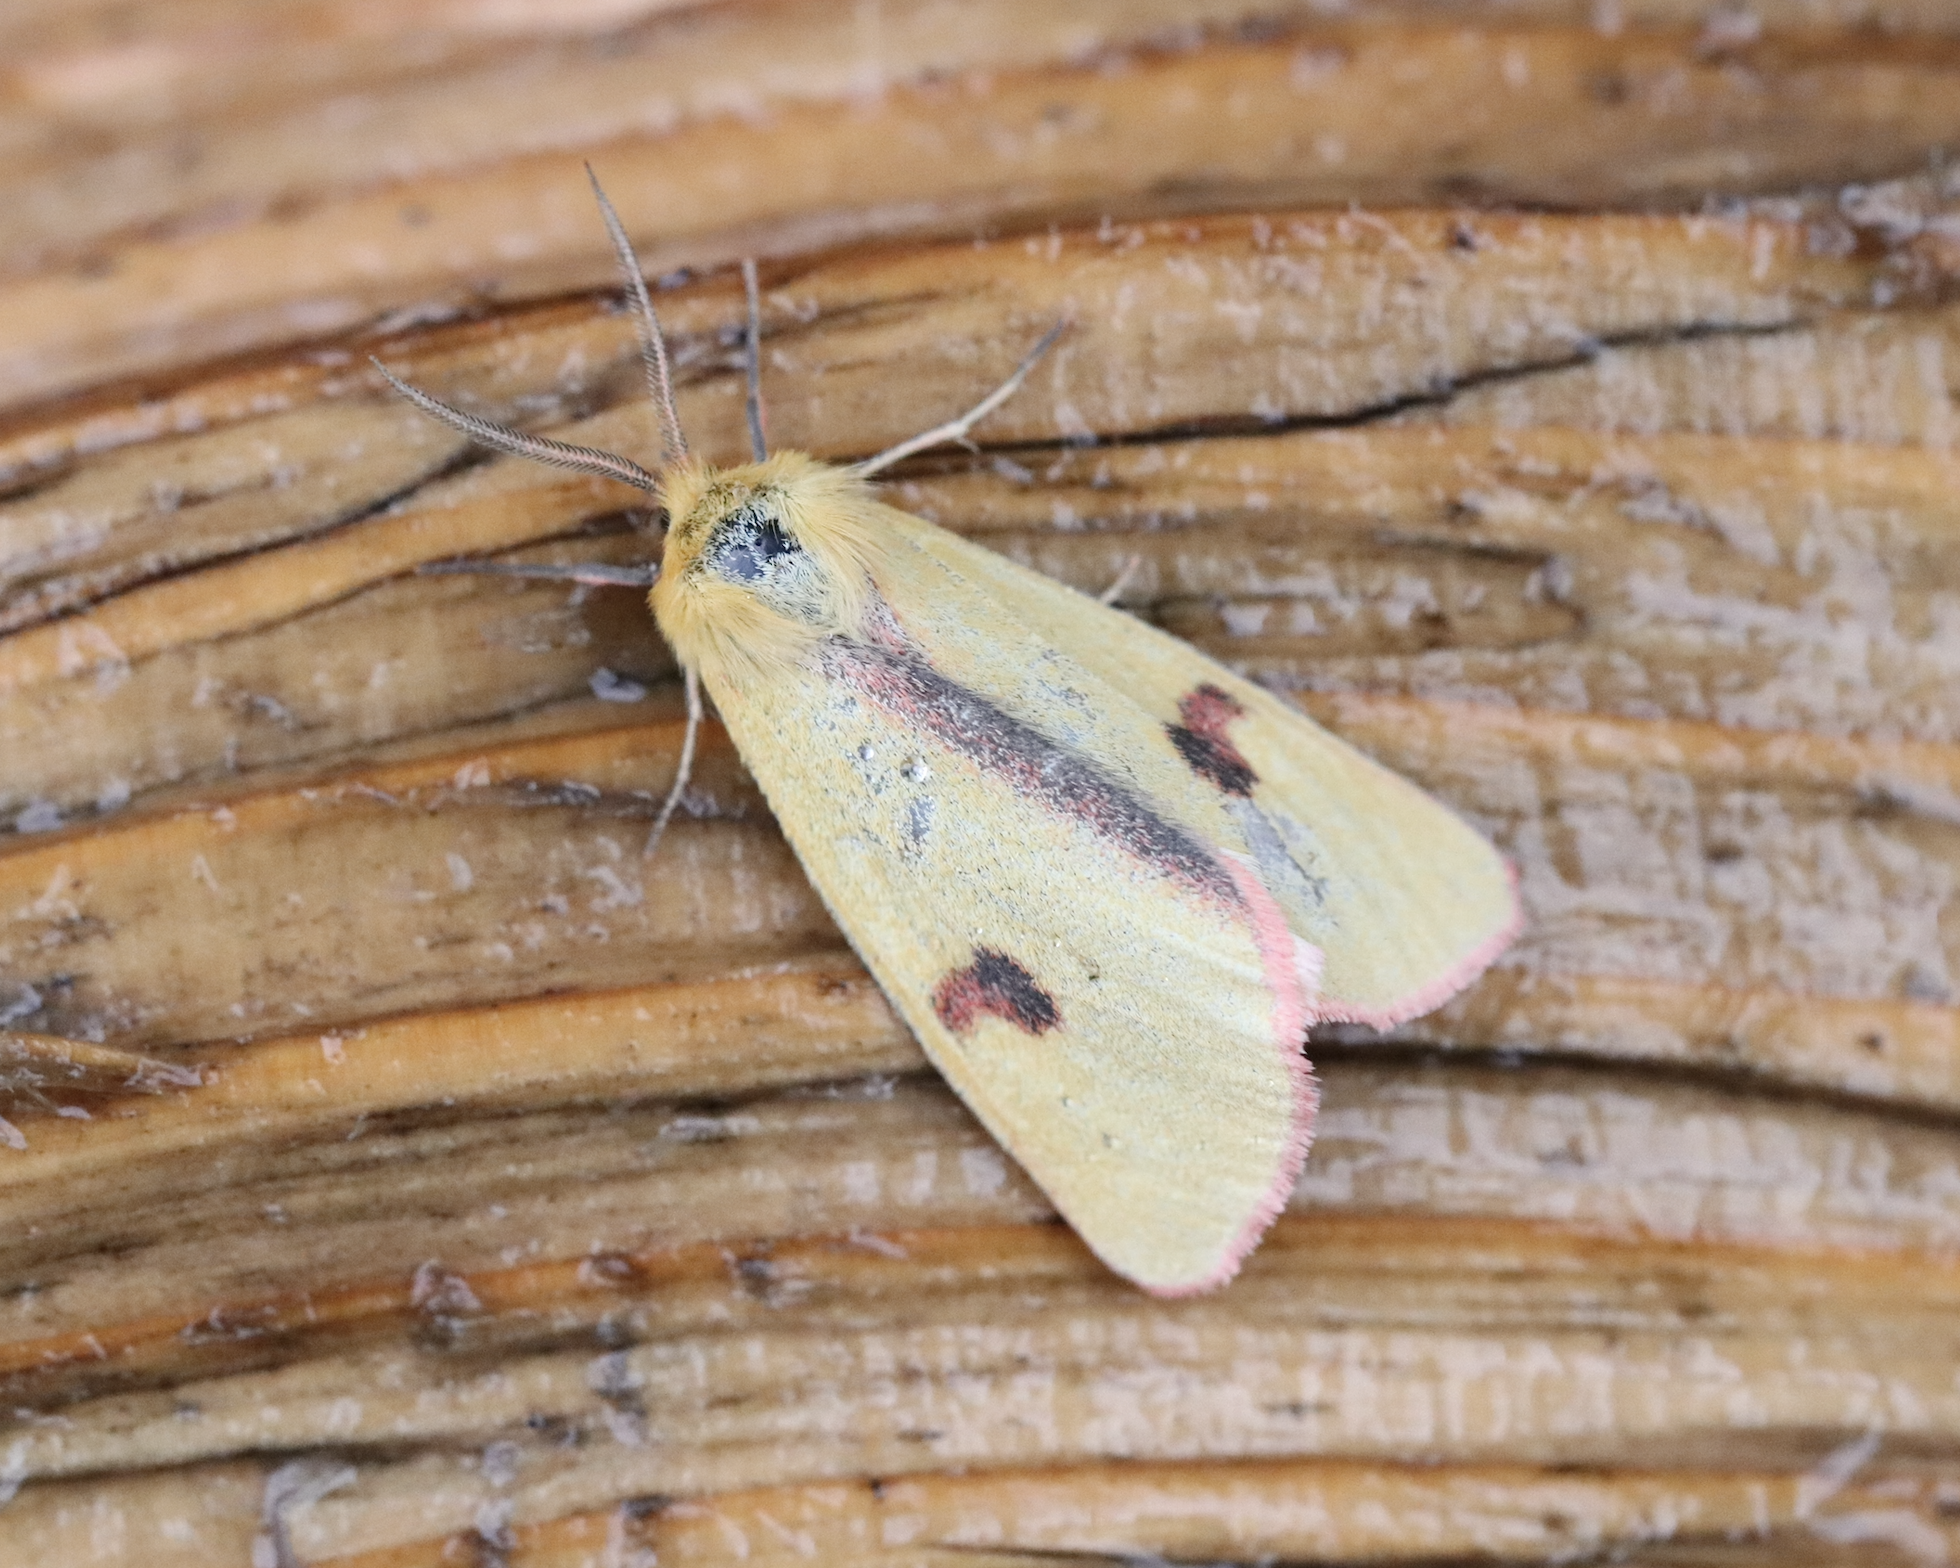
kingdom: Animalia
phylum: Arthropoda
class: Insecta
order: Lepidoptera
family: Erebidae
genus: Diacrisia
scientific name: Diacrisia sannio
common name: Clouded buff
